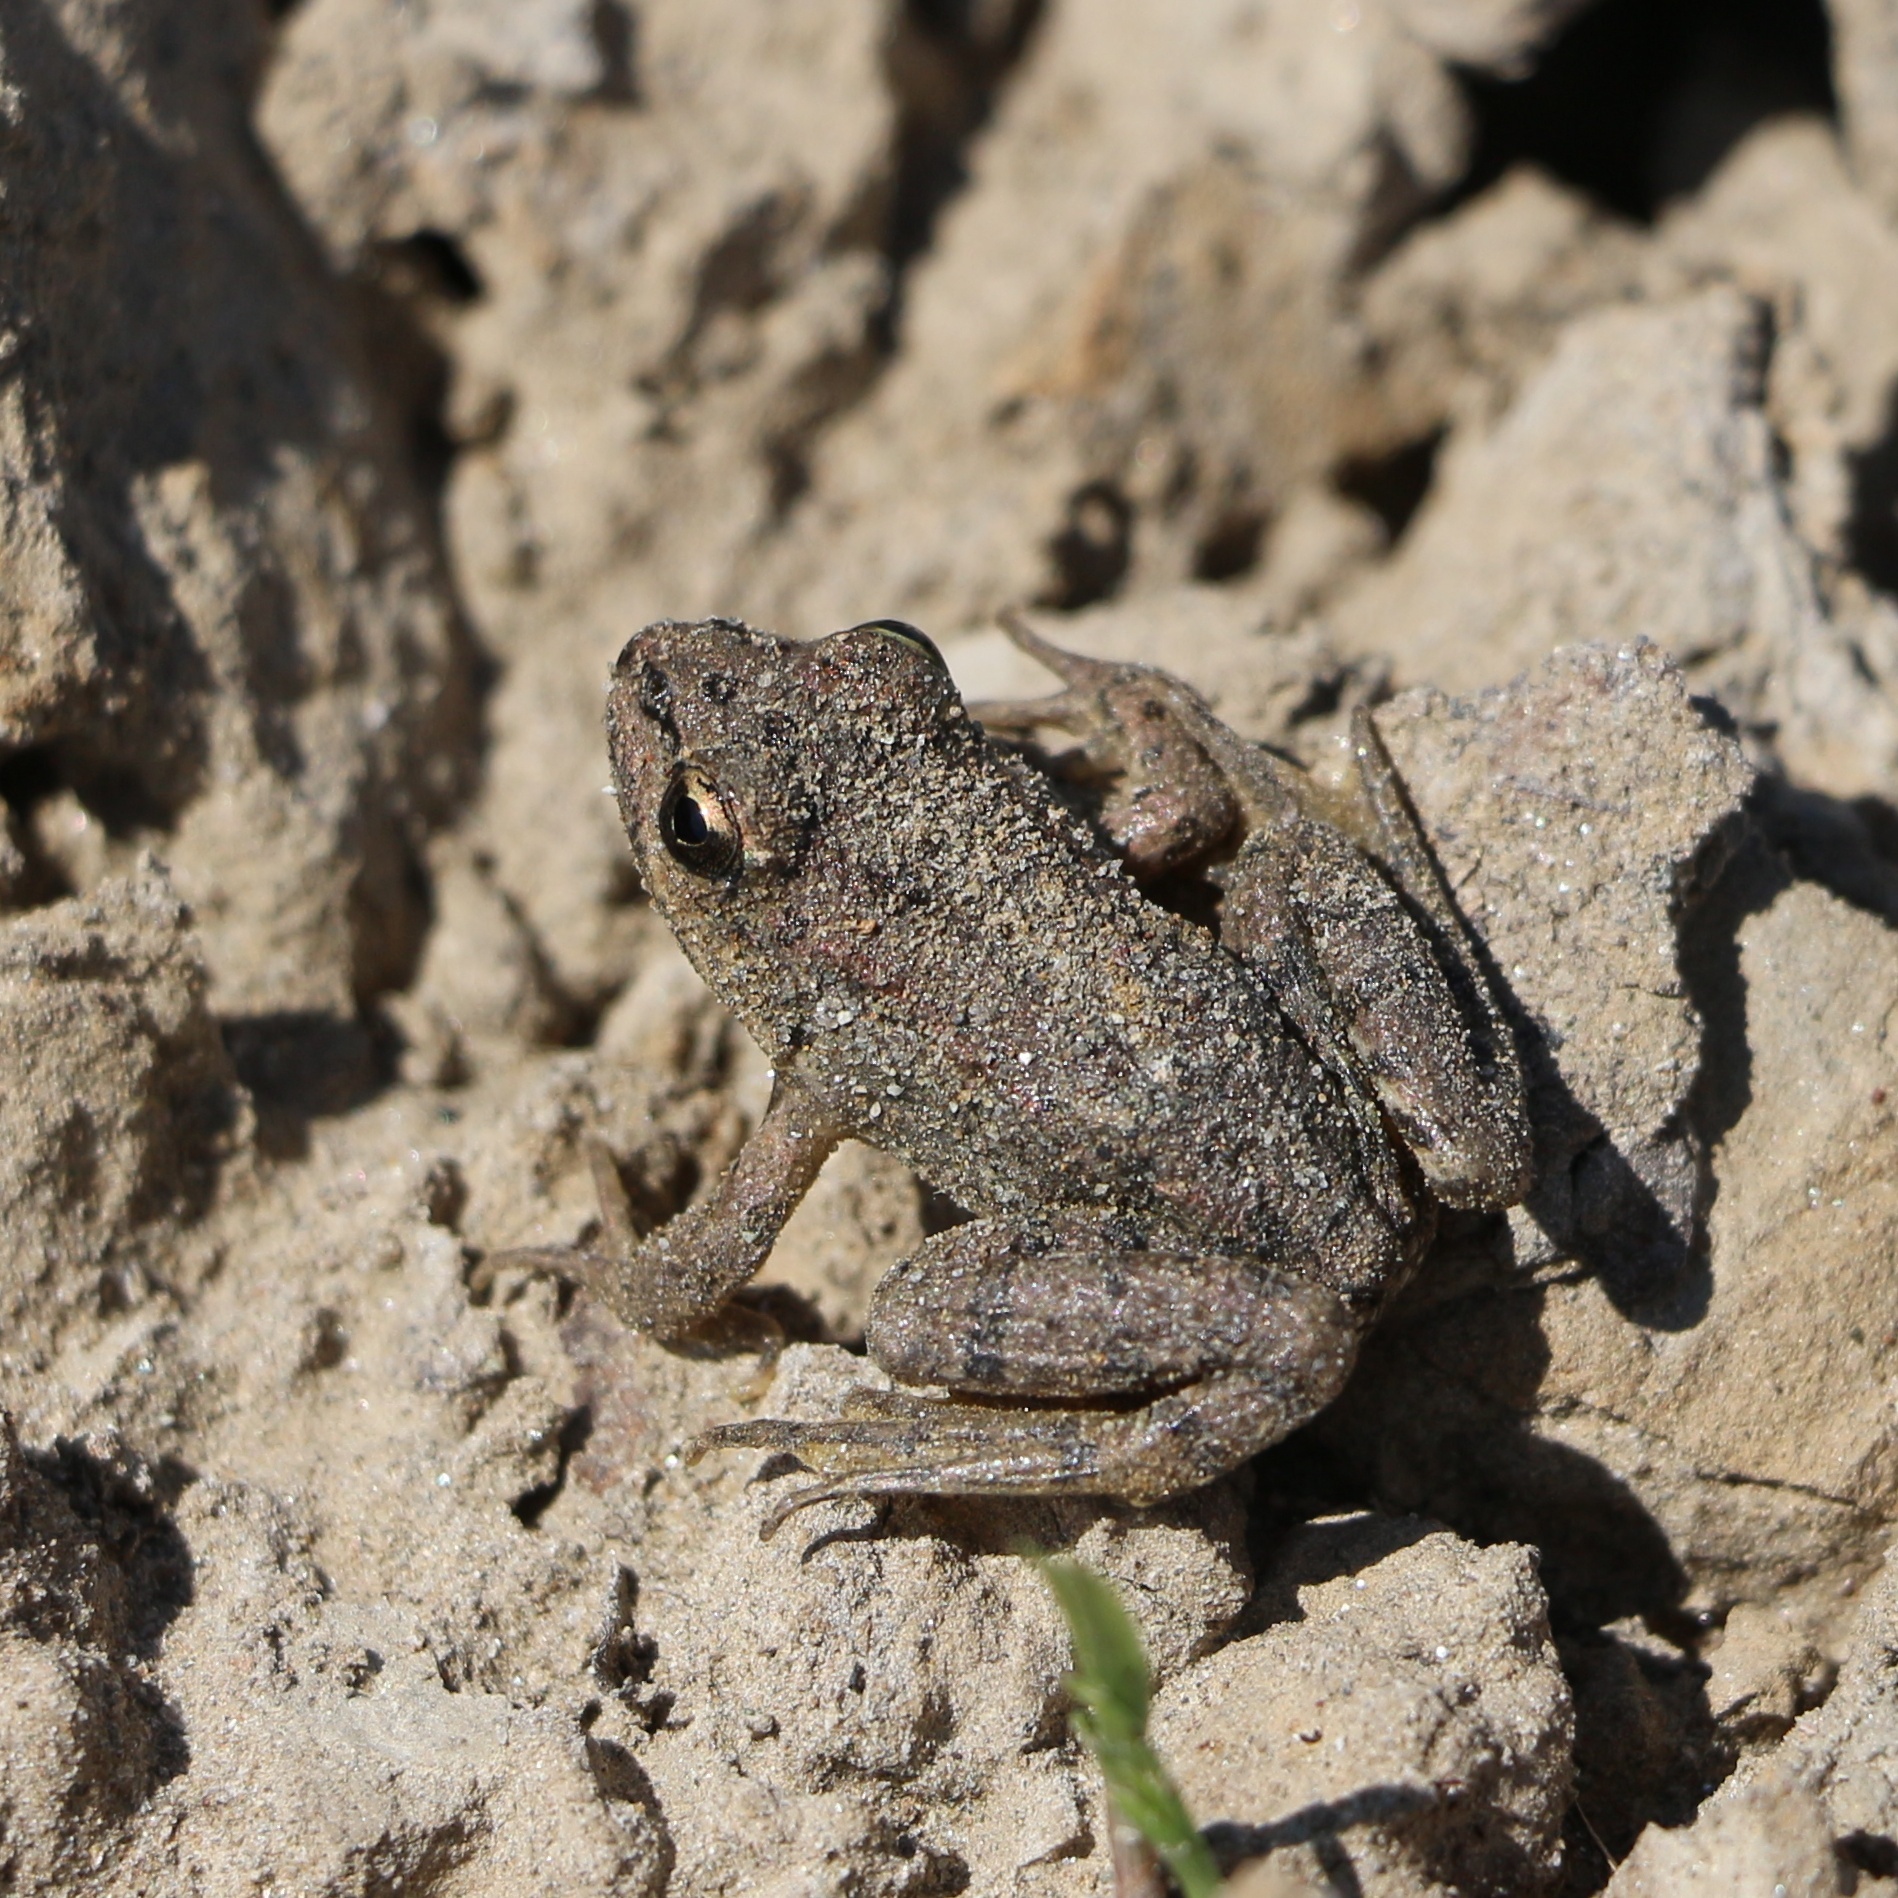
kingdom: Animalia
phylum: Chordata
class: Amphibia
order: Anura
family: Ranidae
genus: Pelophylax
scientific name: Pelophylax ridibundus
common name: Marsh frog
